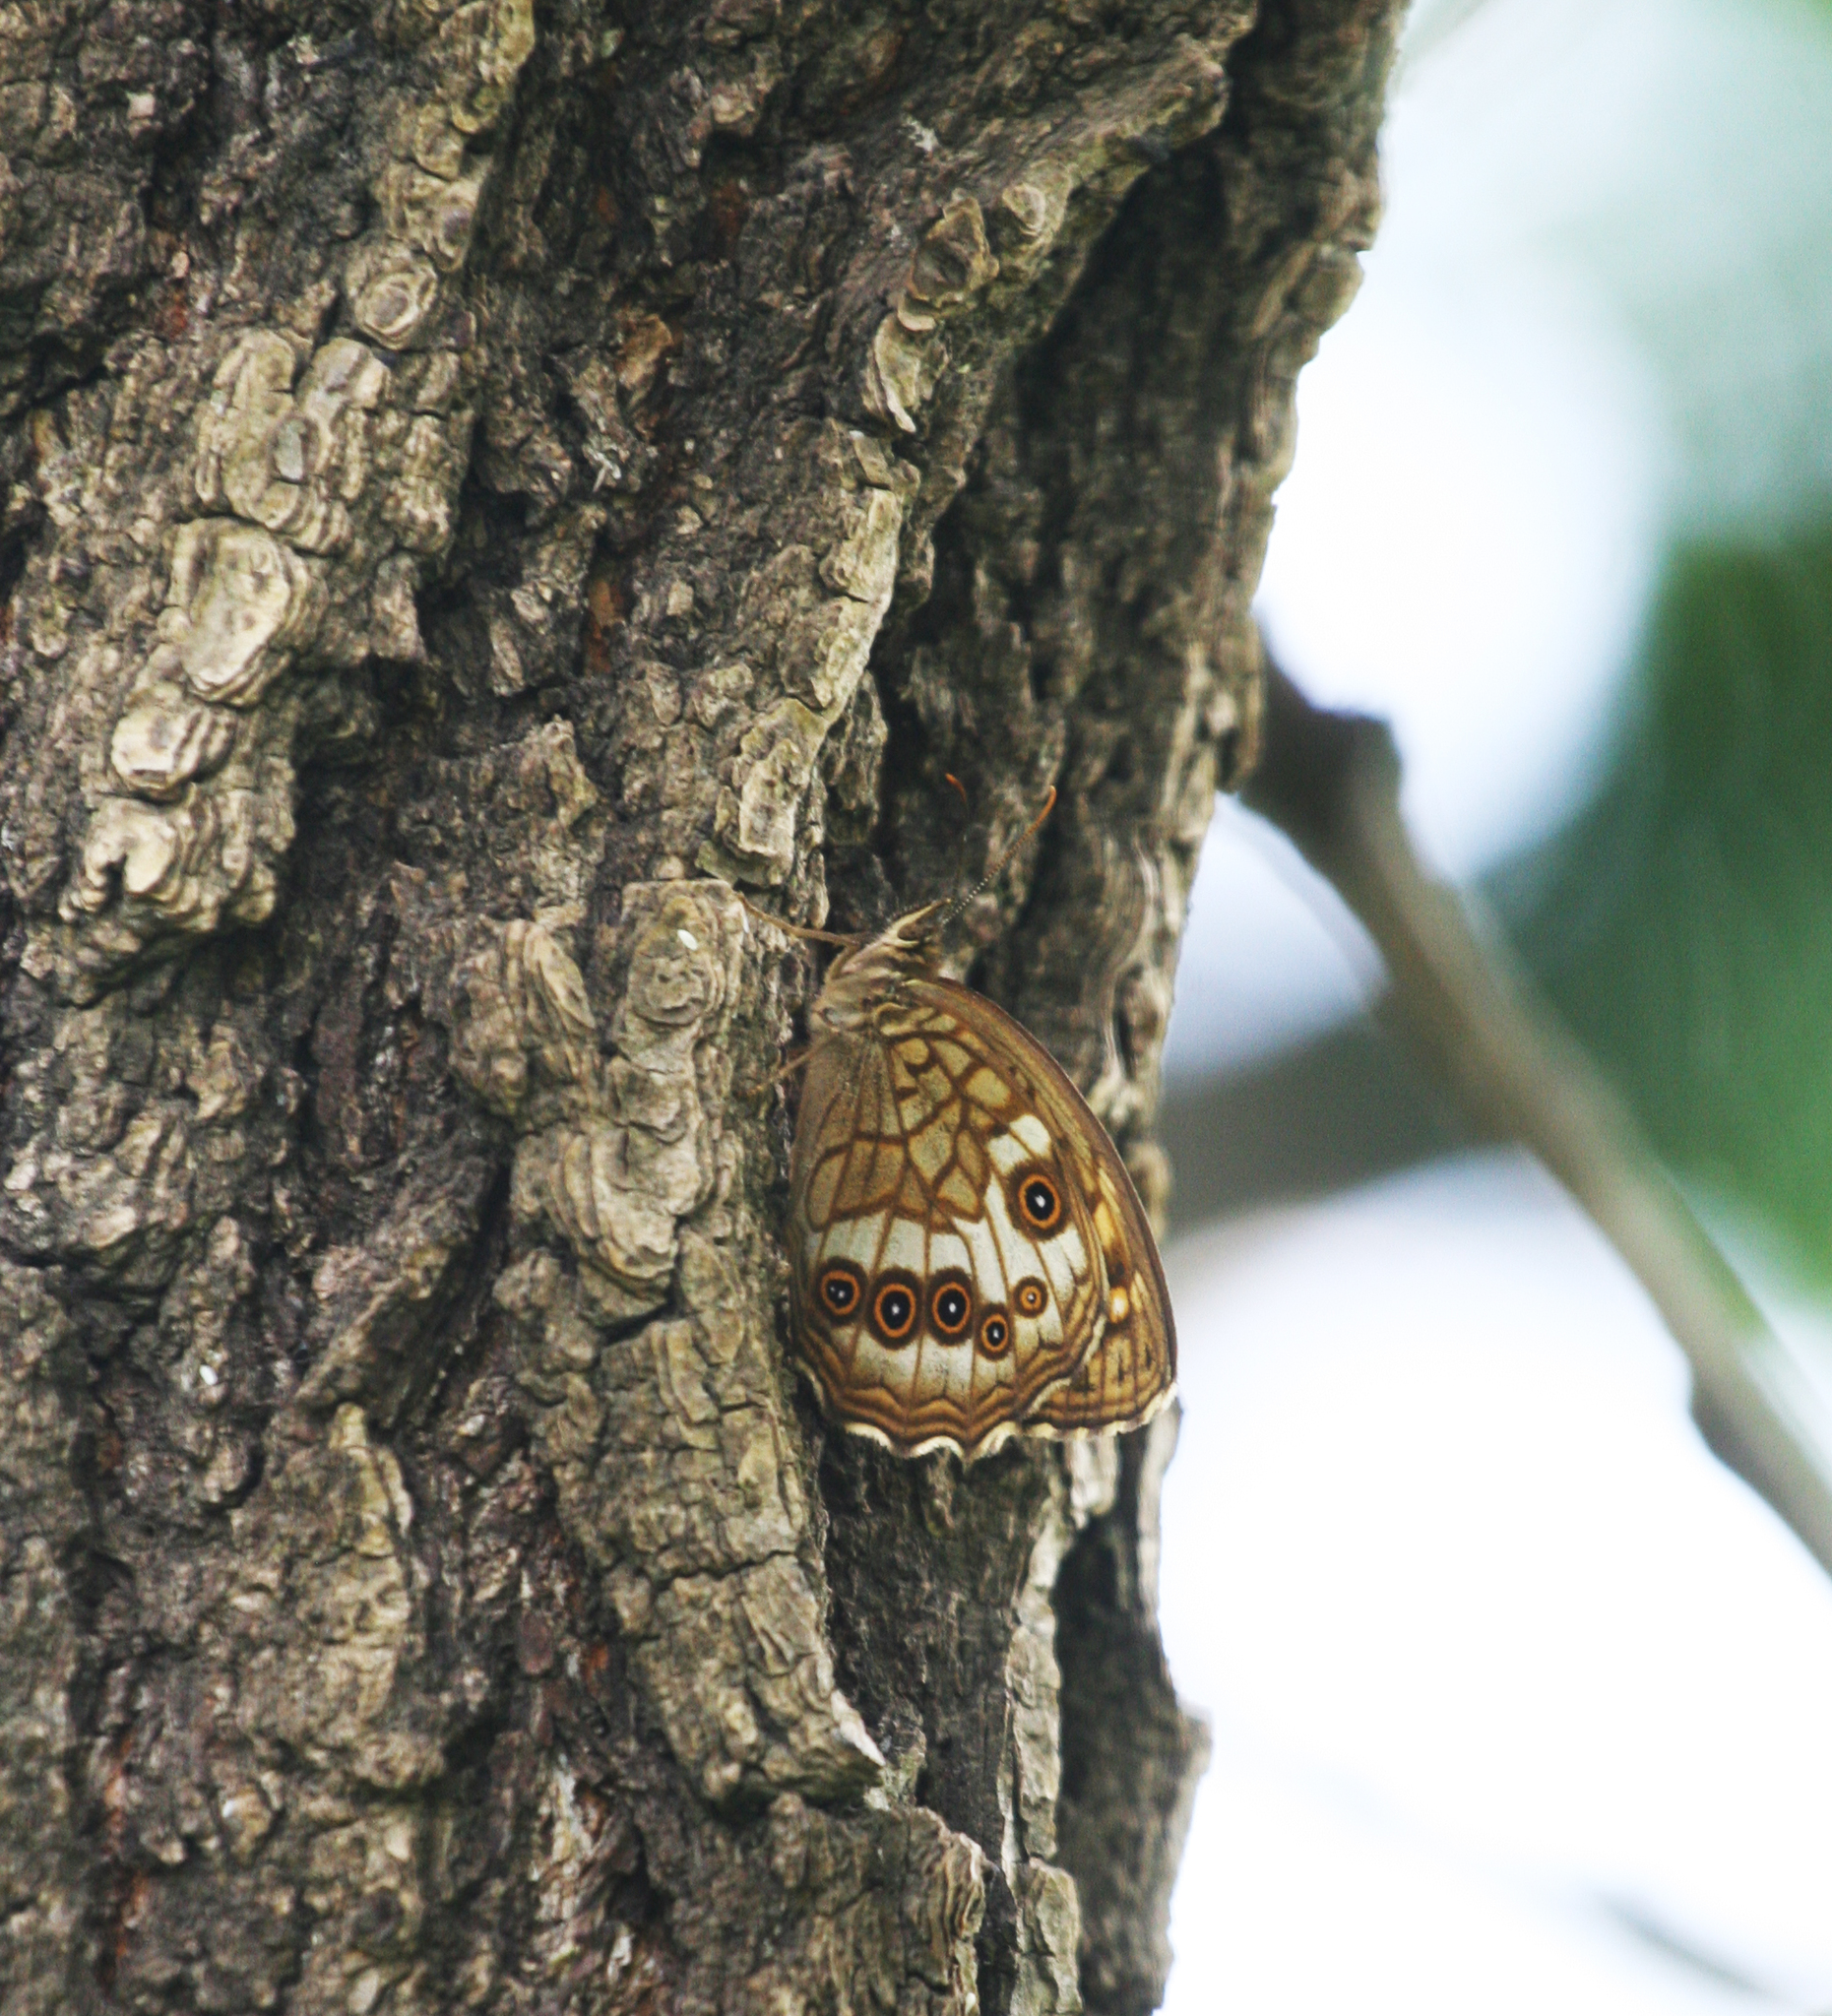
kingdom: Animalia
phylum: Arthropoda
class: Insecta
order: Lepidoptera
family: Nymphalidae
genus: Kirinia
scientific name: Kirinia
